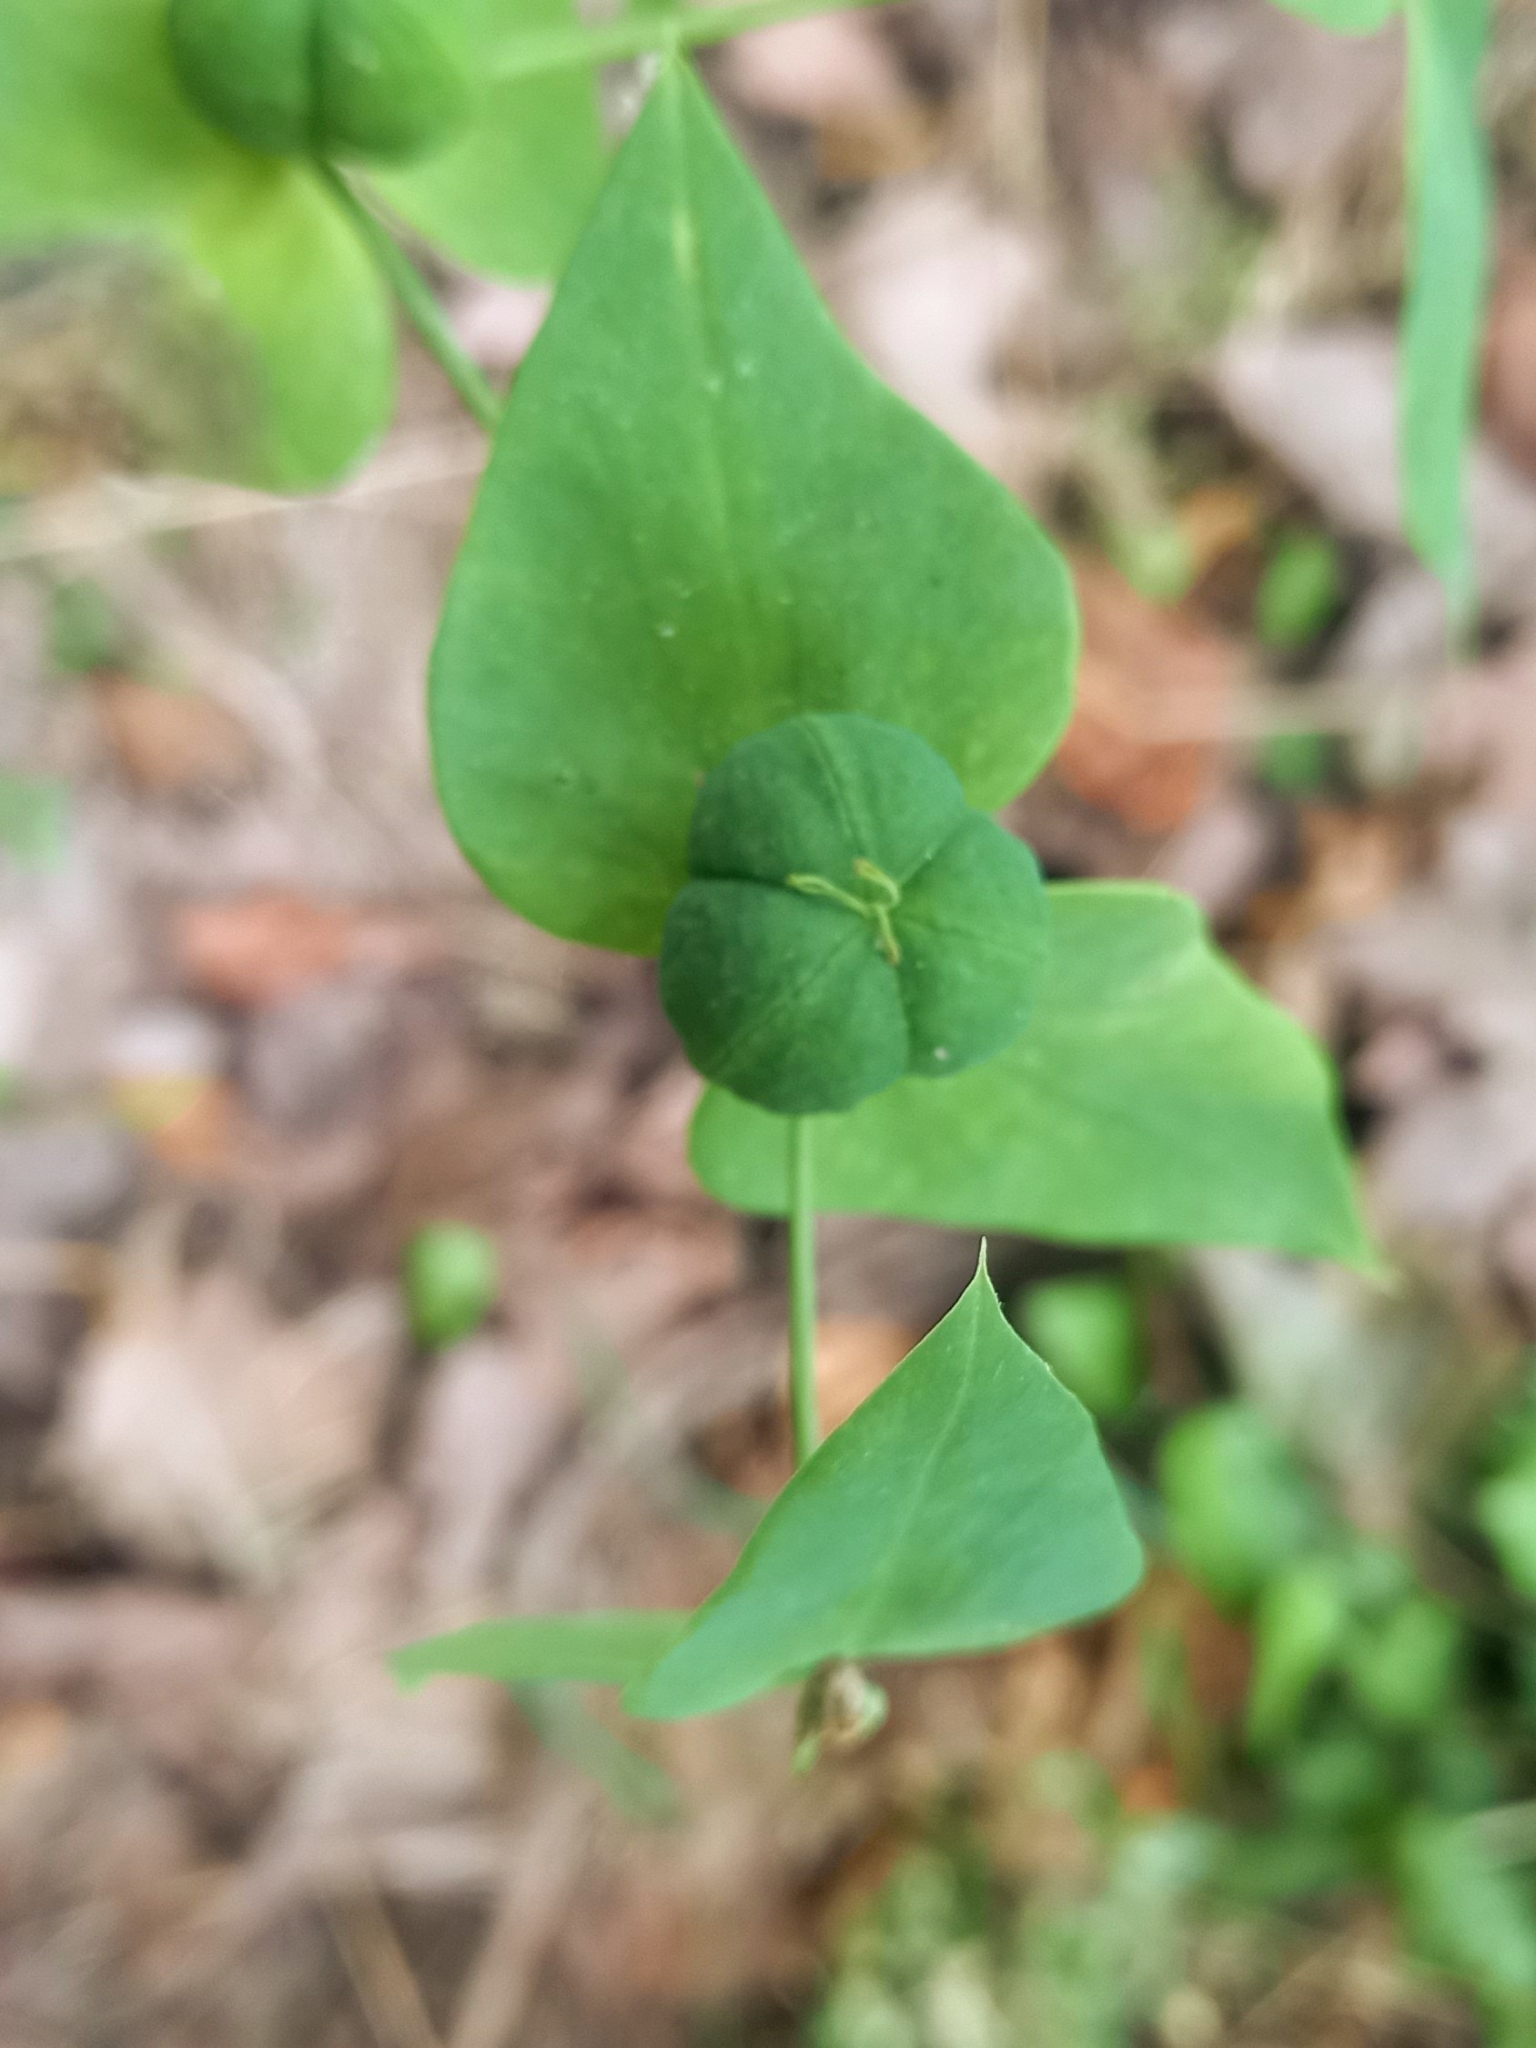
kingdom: Plantae
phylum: Tracheophyta
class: Magnoliopsida
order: Malpighiales
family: Euphorbiaceae
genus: Euphorbia
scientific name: Euphorbia lathyris
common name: Caper spurge
